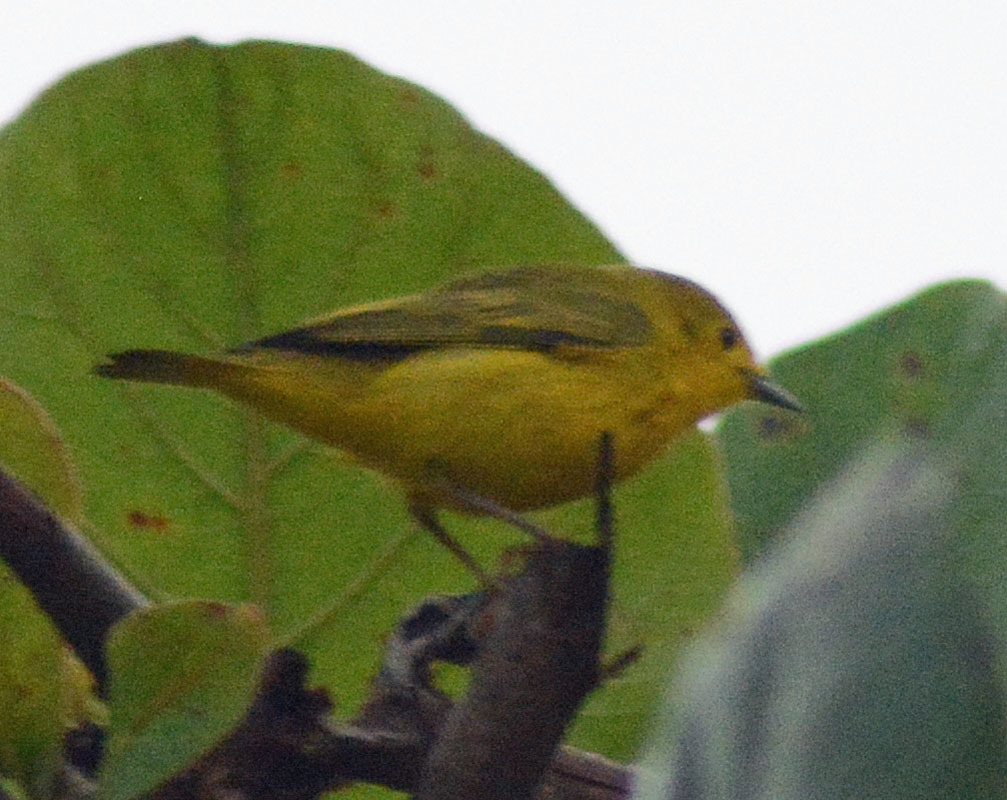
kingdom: Animalia
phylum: Chordata
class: Aves
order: Passeriformes
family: Parulidae
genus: Setophaga
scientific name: Setophaga petechia
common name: Yellow warbler
